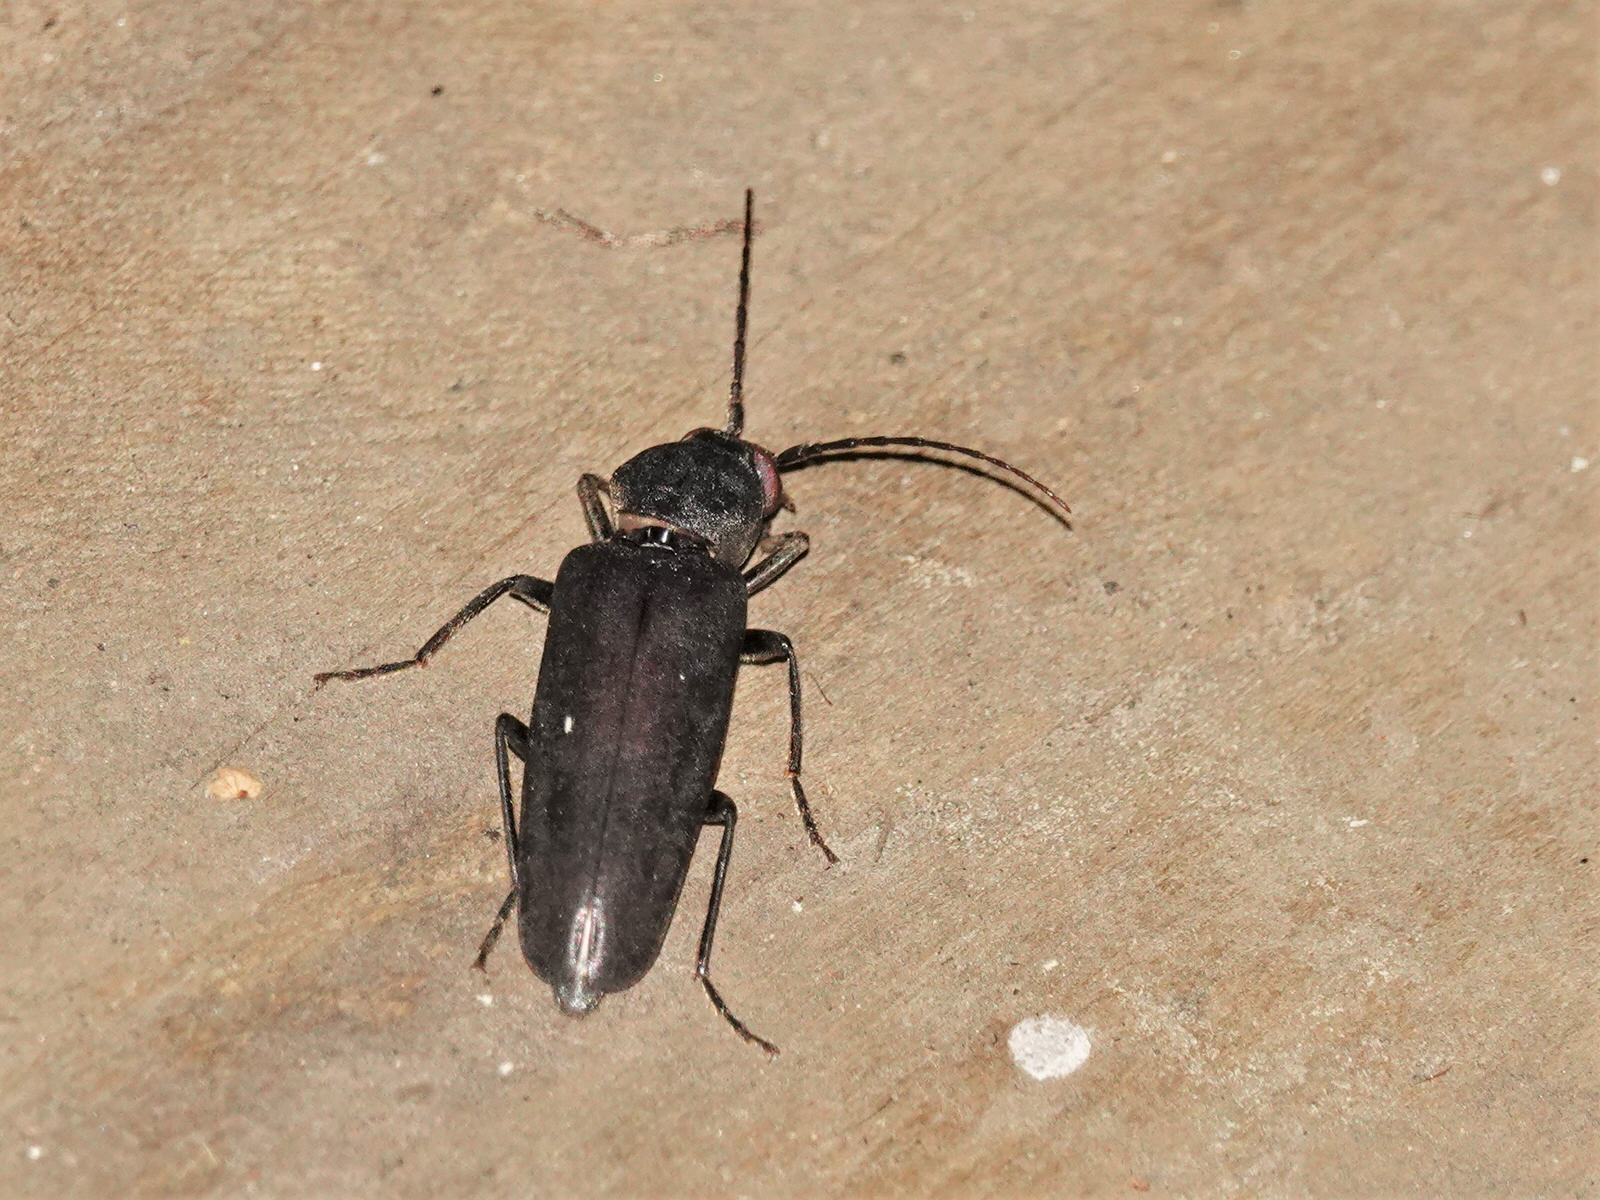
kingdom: Animalia
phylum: Arthropoda
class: Insecta
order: Coleoptera
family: Cerambycidae
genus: Arhopalus
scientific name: Arhopalus ferus
